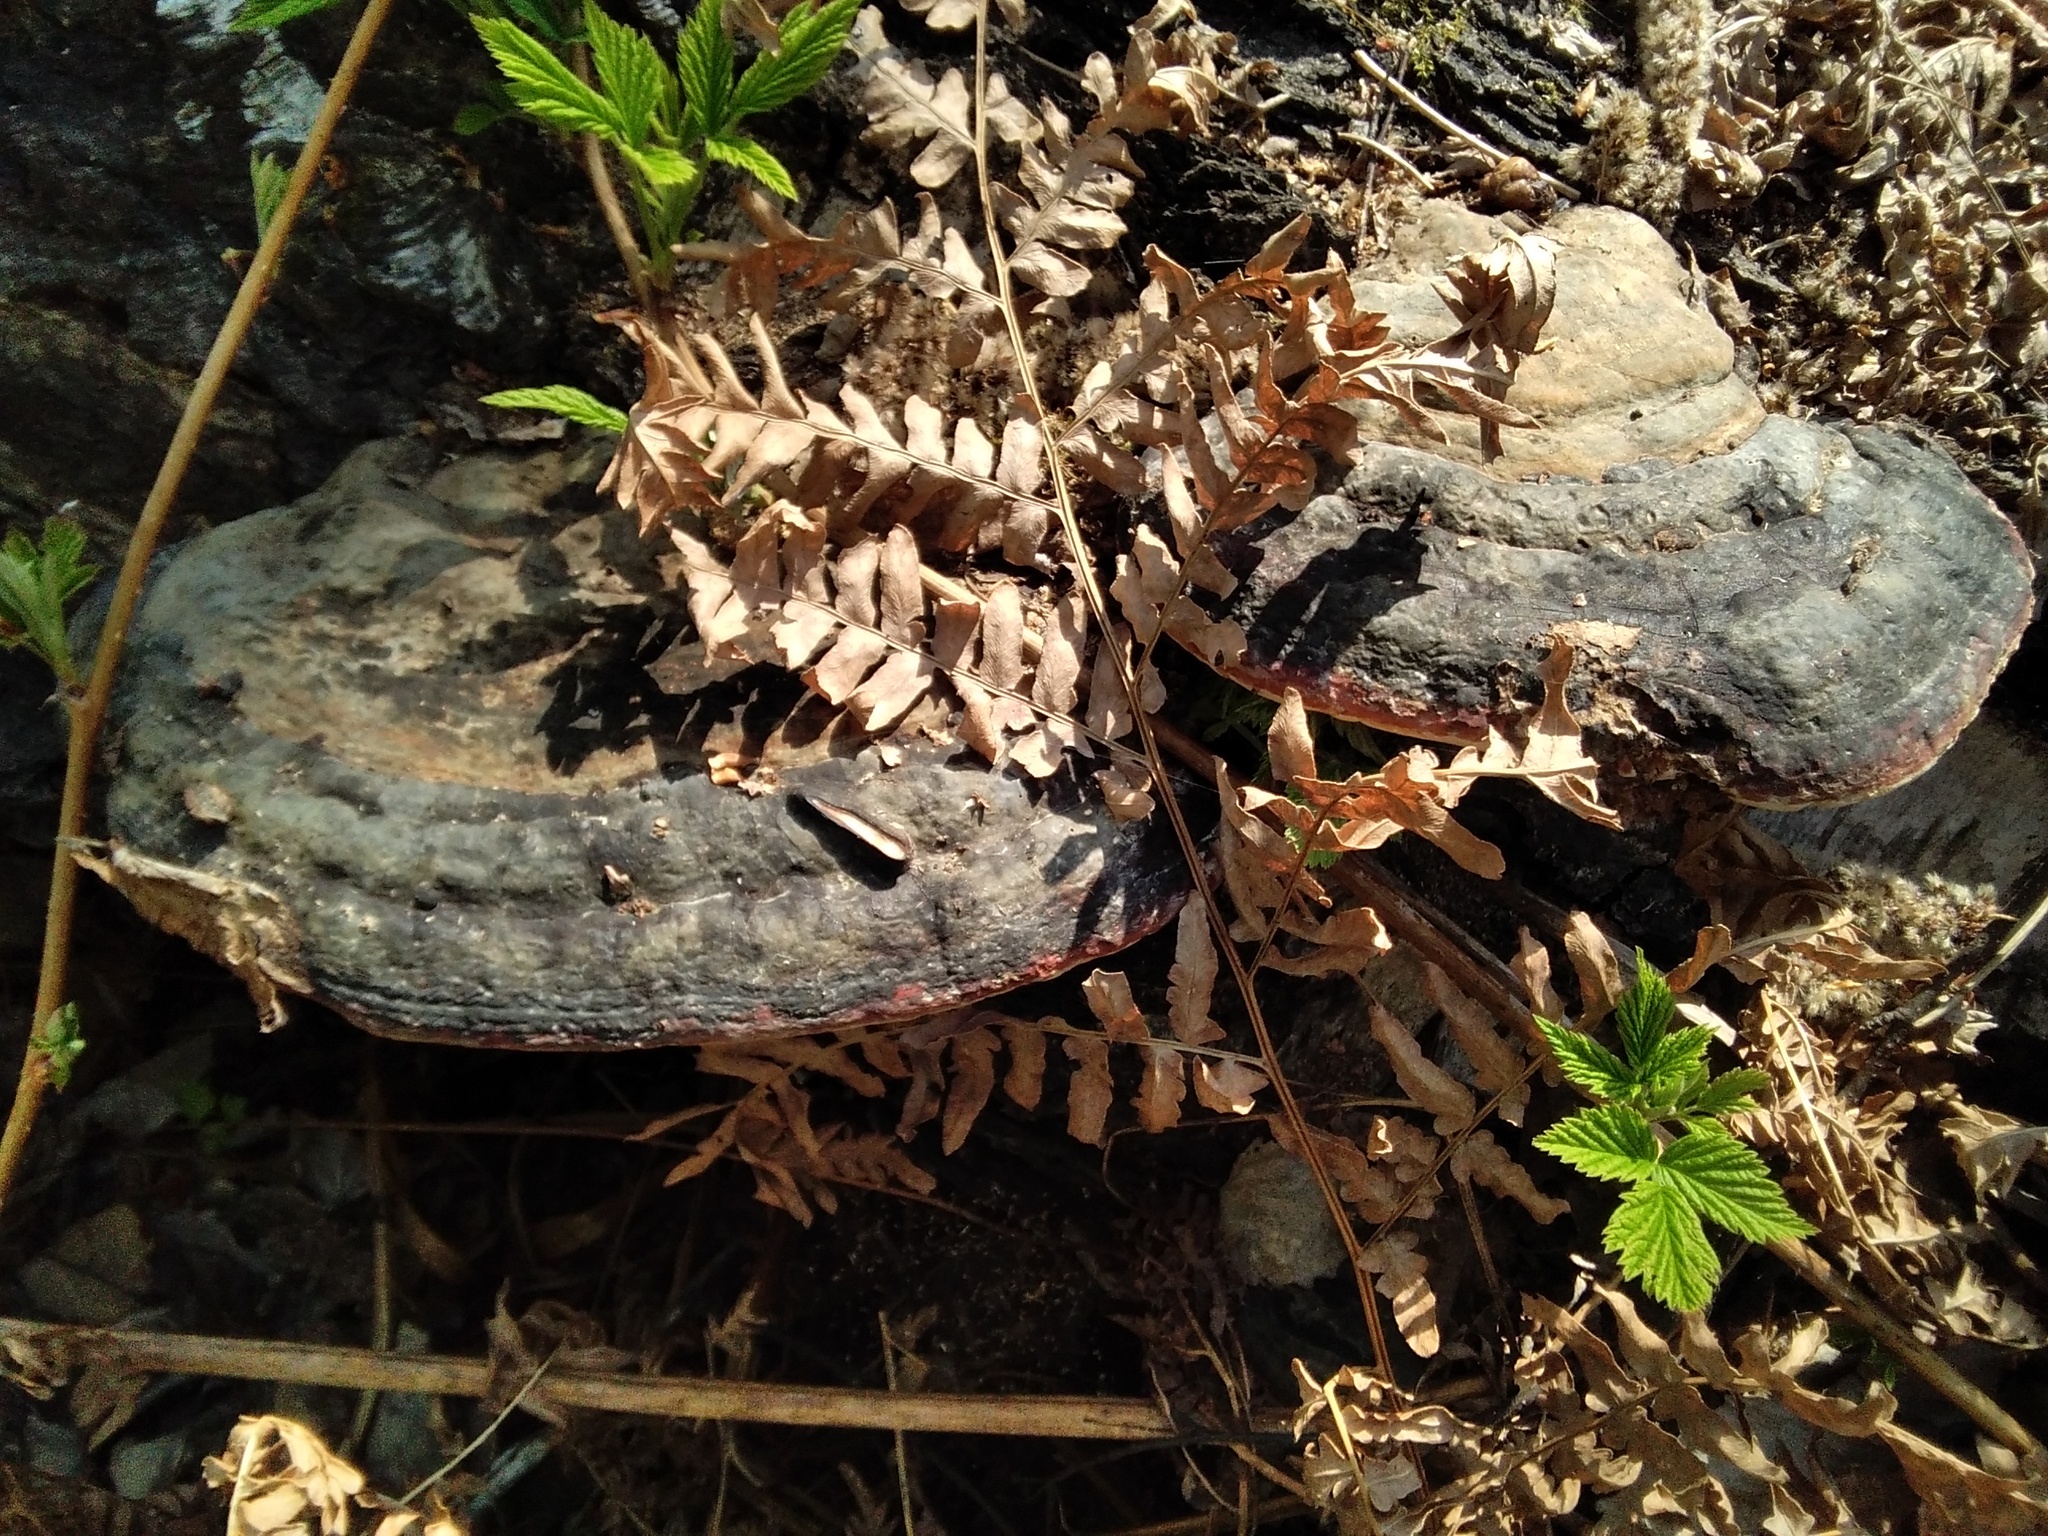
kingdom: Fungi
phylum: Basidiomycota
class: Agaricomycetes
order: Polyporales
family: Fomitopsidaceae
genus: Fomitopsis
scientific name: Fomitopsis pinicola
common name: Red-belted bracket
